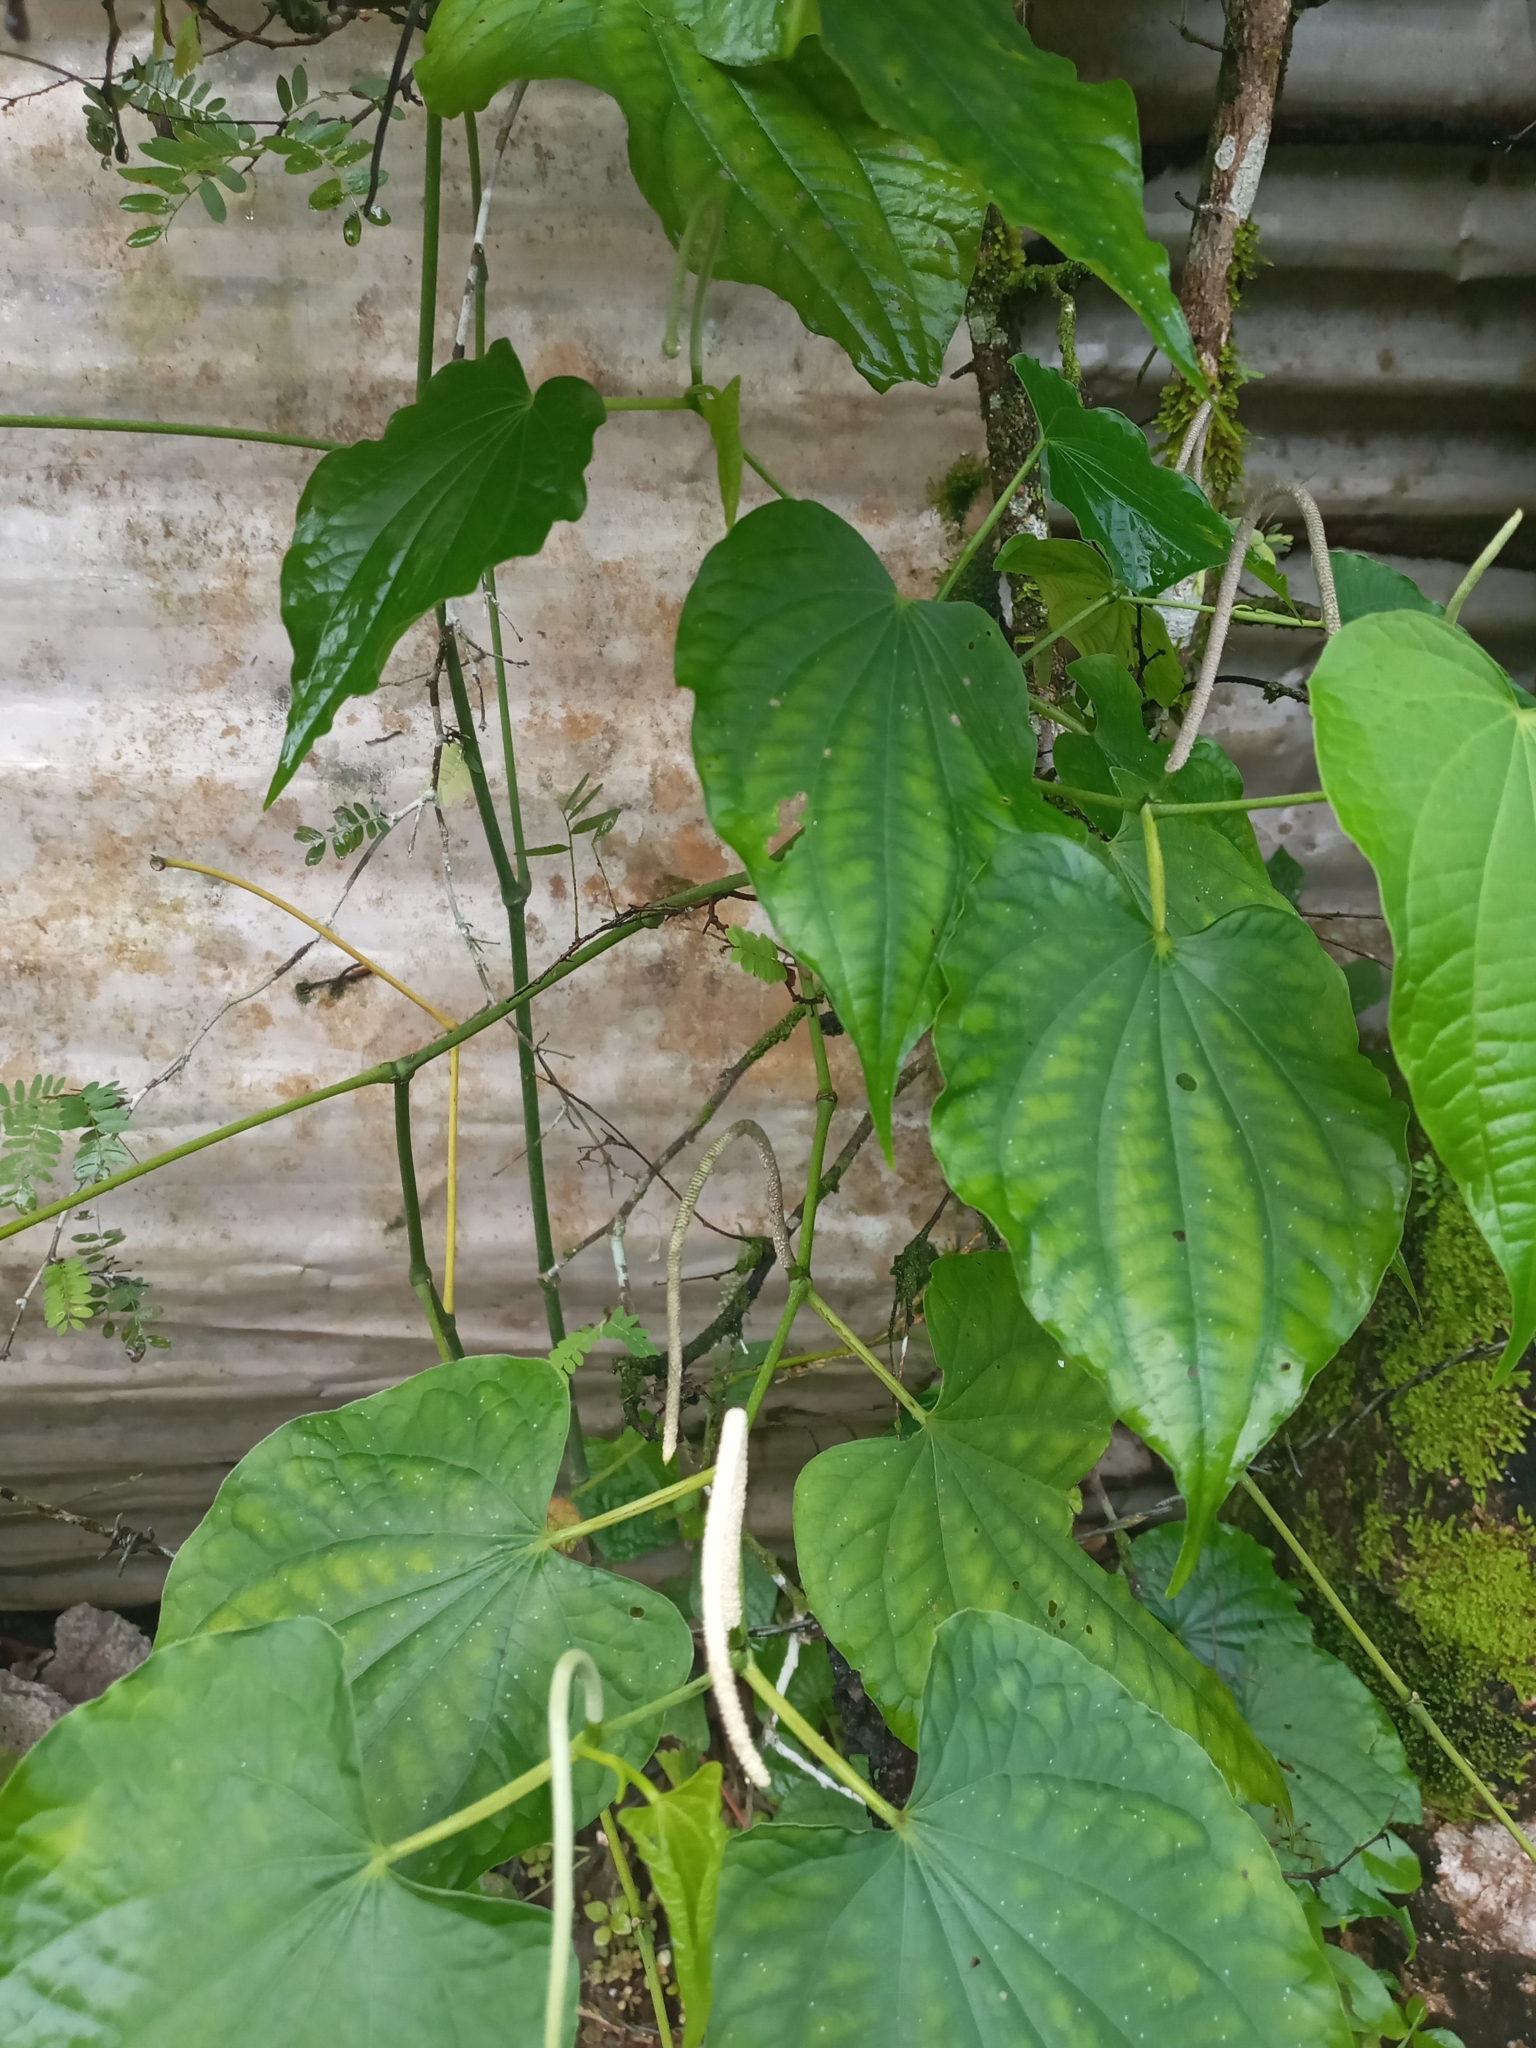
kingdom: Plantae
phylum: Tracheophyta
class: Magnoliopsida
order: Piperales
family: Piperaceae
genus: Piper
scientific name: Piper marginatum
